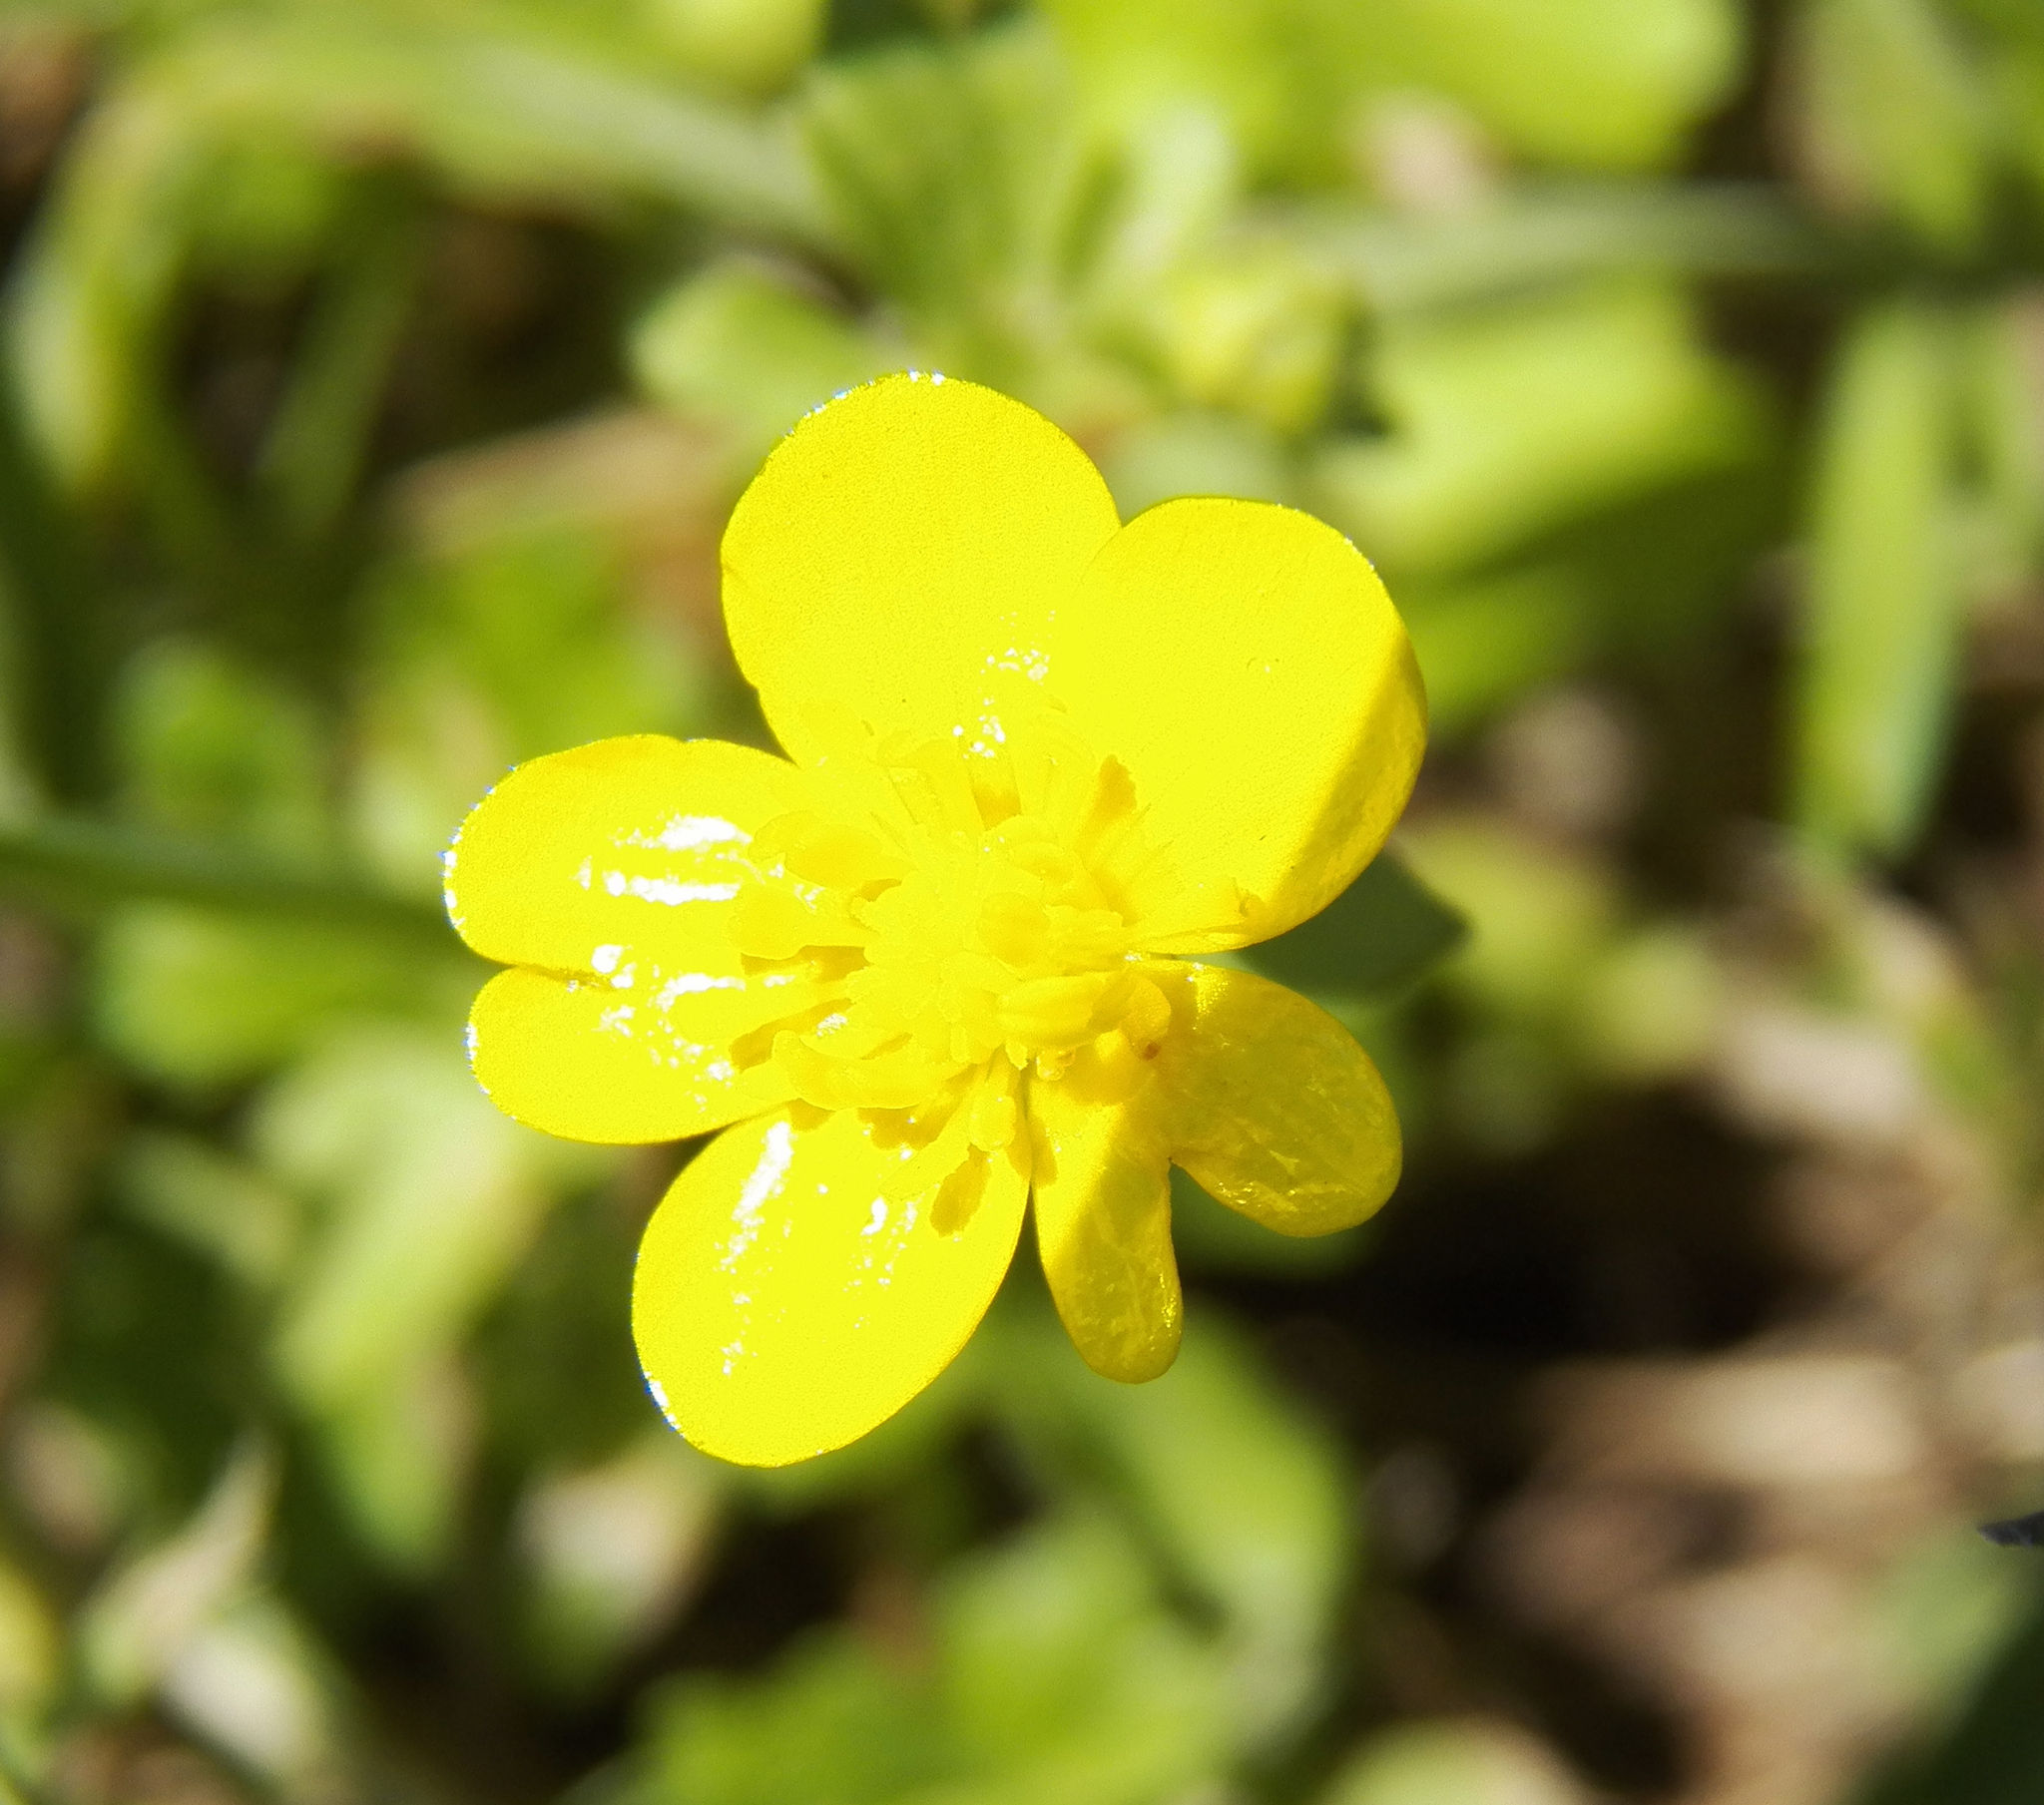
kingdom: Plantae
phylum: Tracheophyta
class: Magnoliopsida
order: Ranunculales
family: Ranunculaceae
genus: Ranunculus
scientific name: Ranunculus sardous
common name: Hairy buttercup
